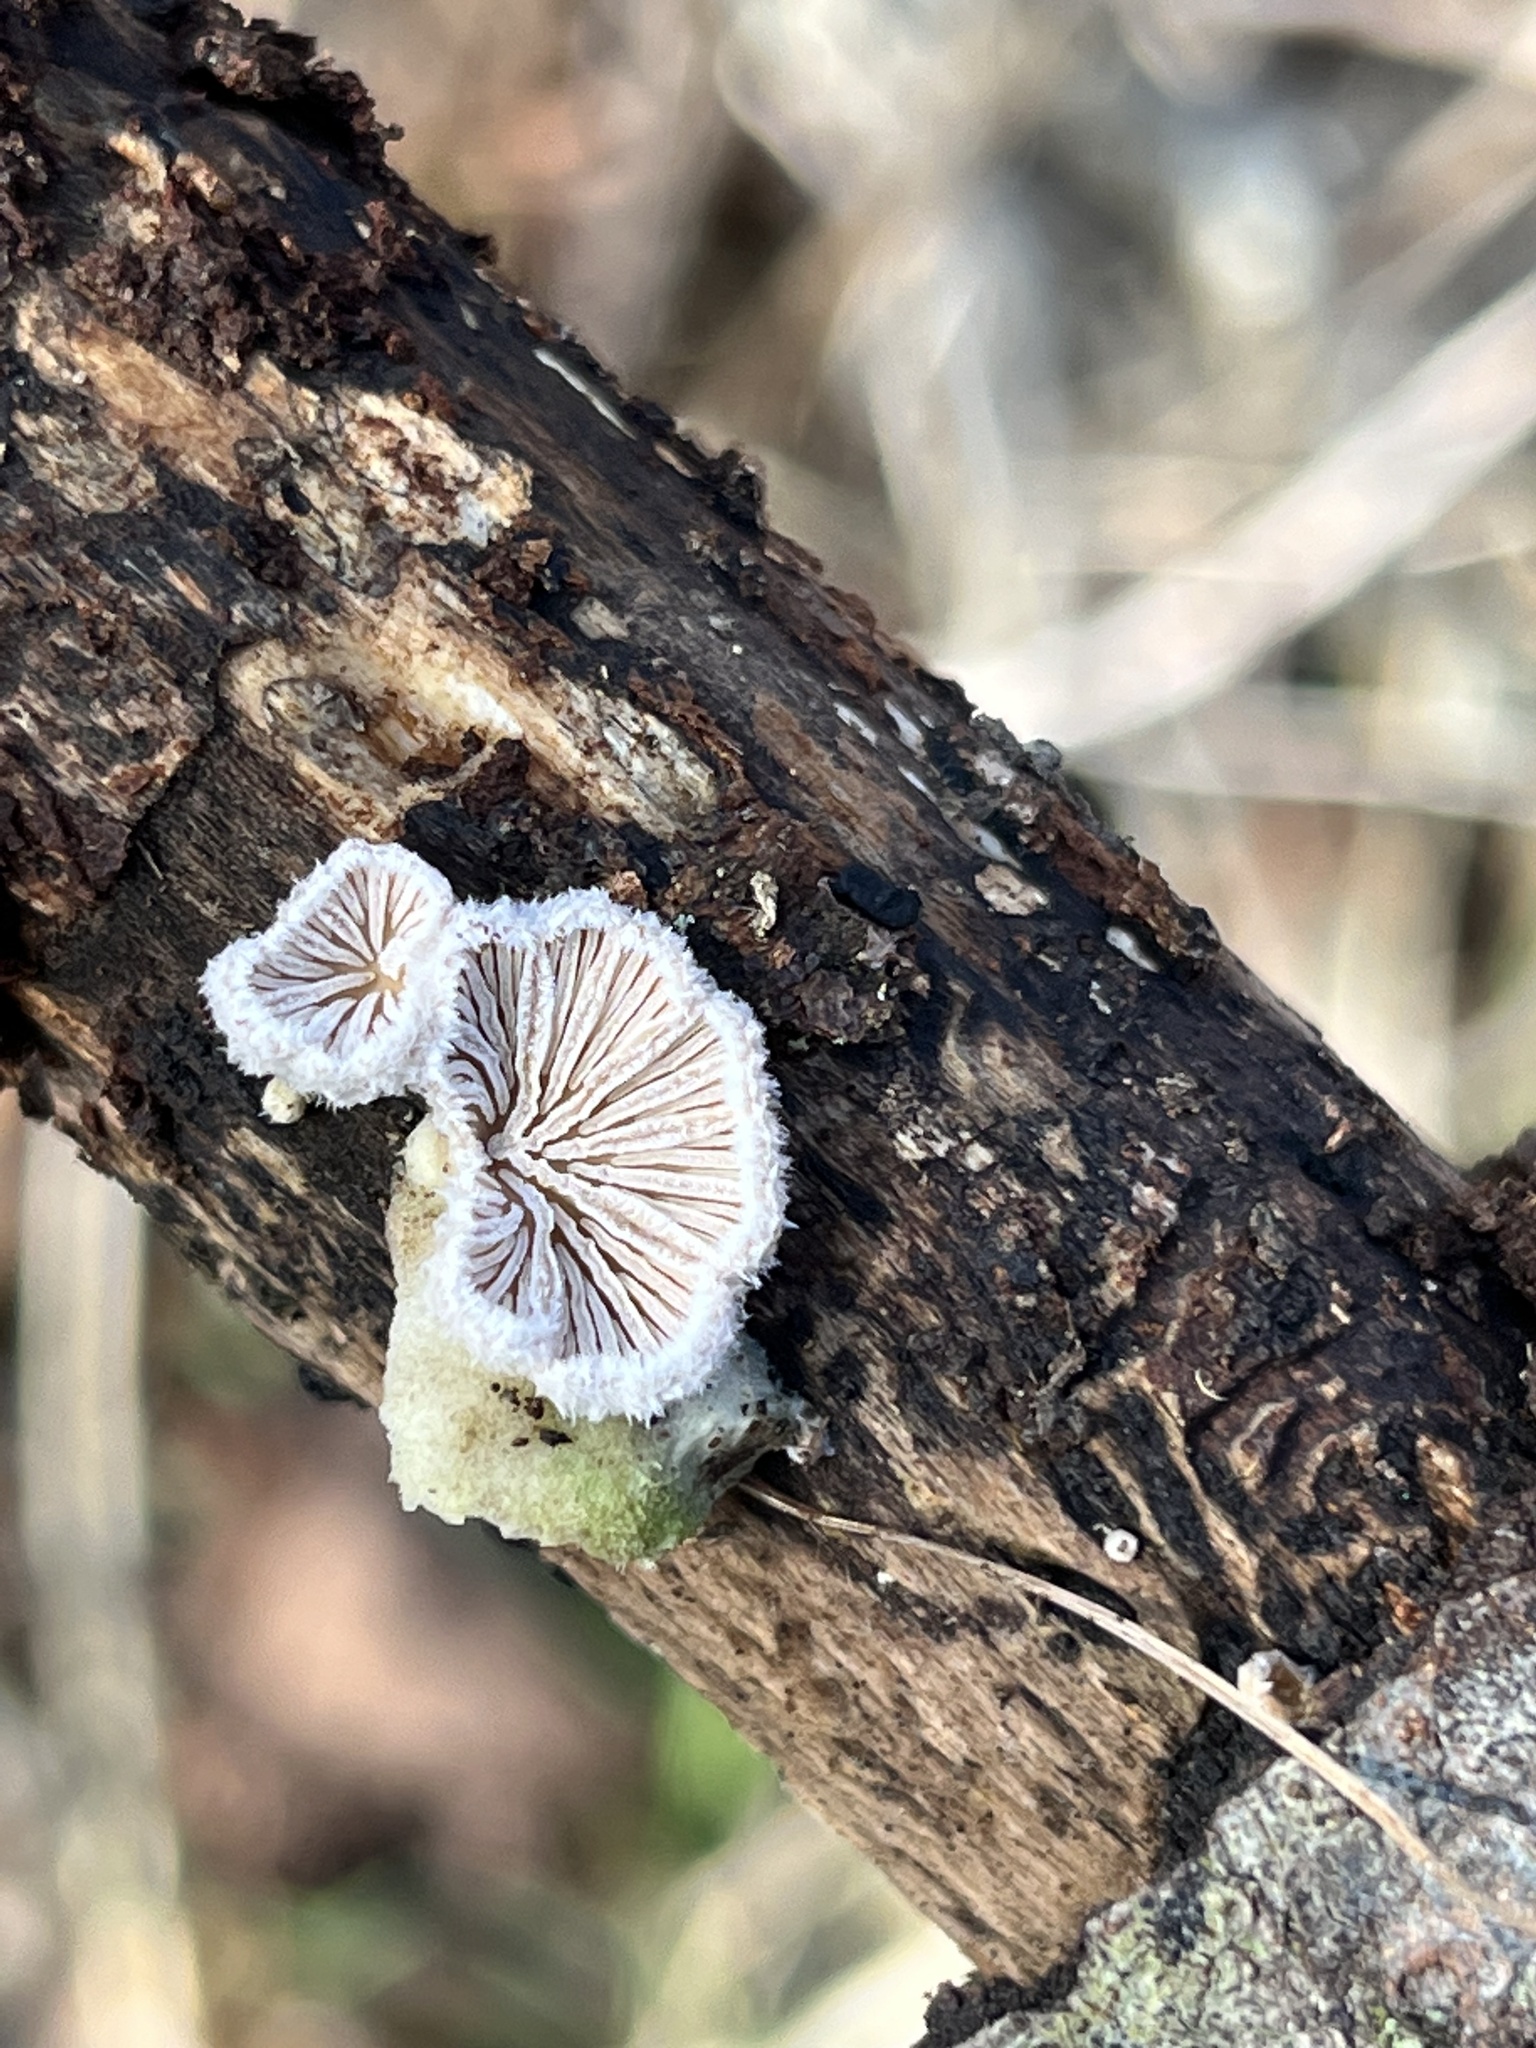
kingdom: Fungi
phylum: Basidiomycota
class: Agaricomycetes
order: Agaricales
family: Schizophyllaceae
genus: Schizophyllum
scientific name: Schizophyllum commune
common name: Common porecrust
